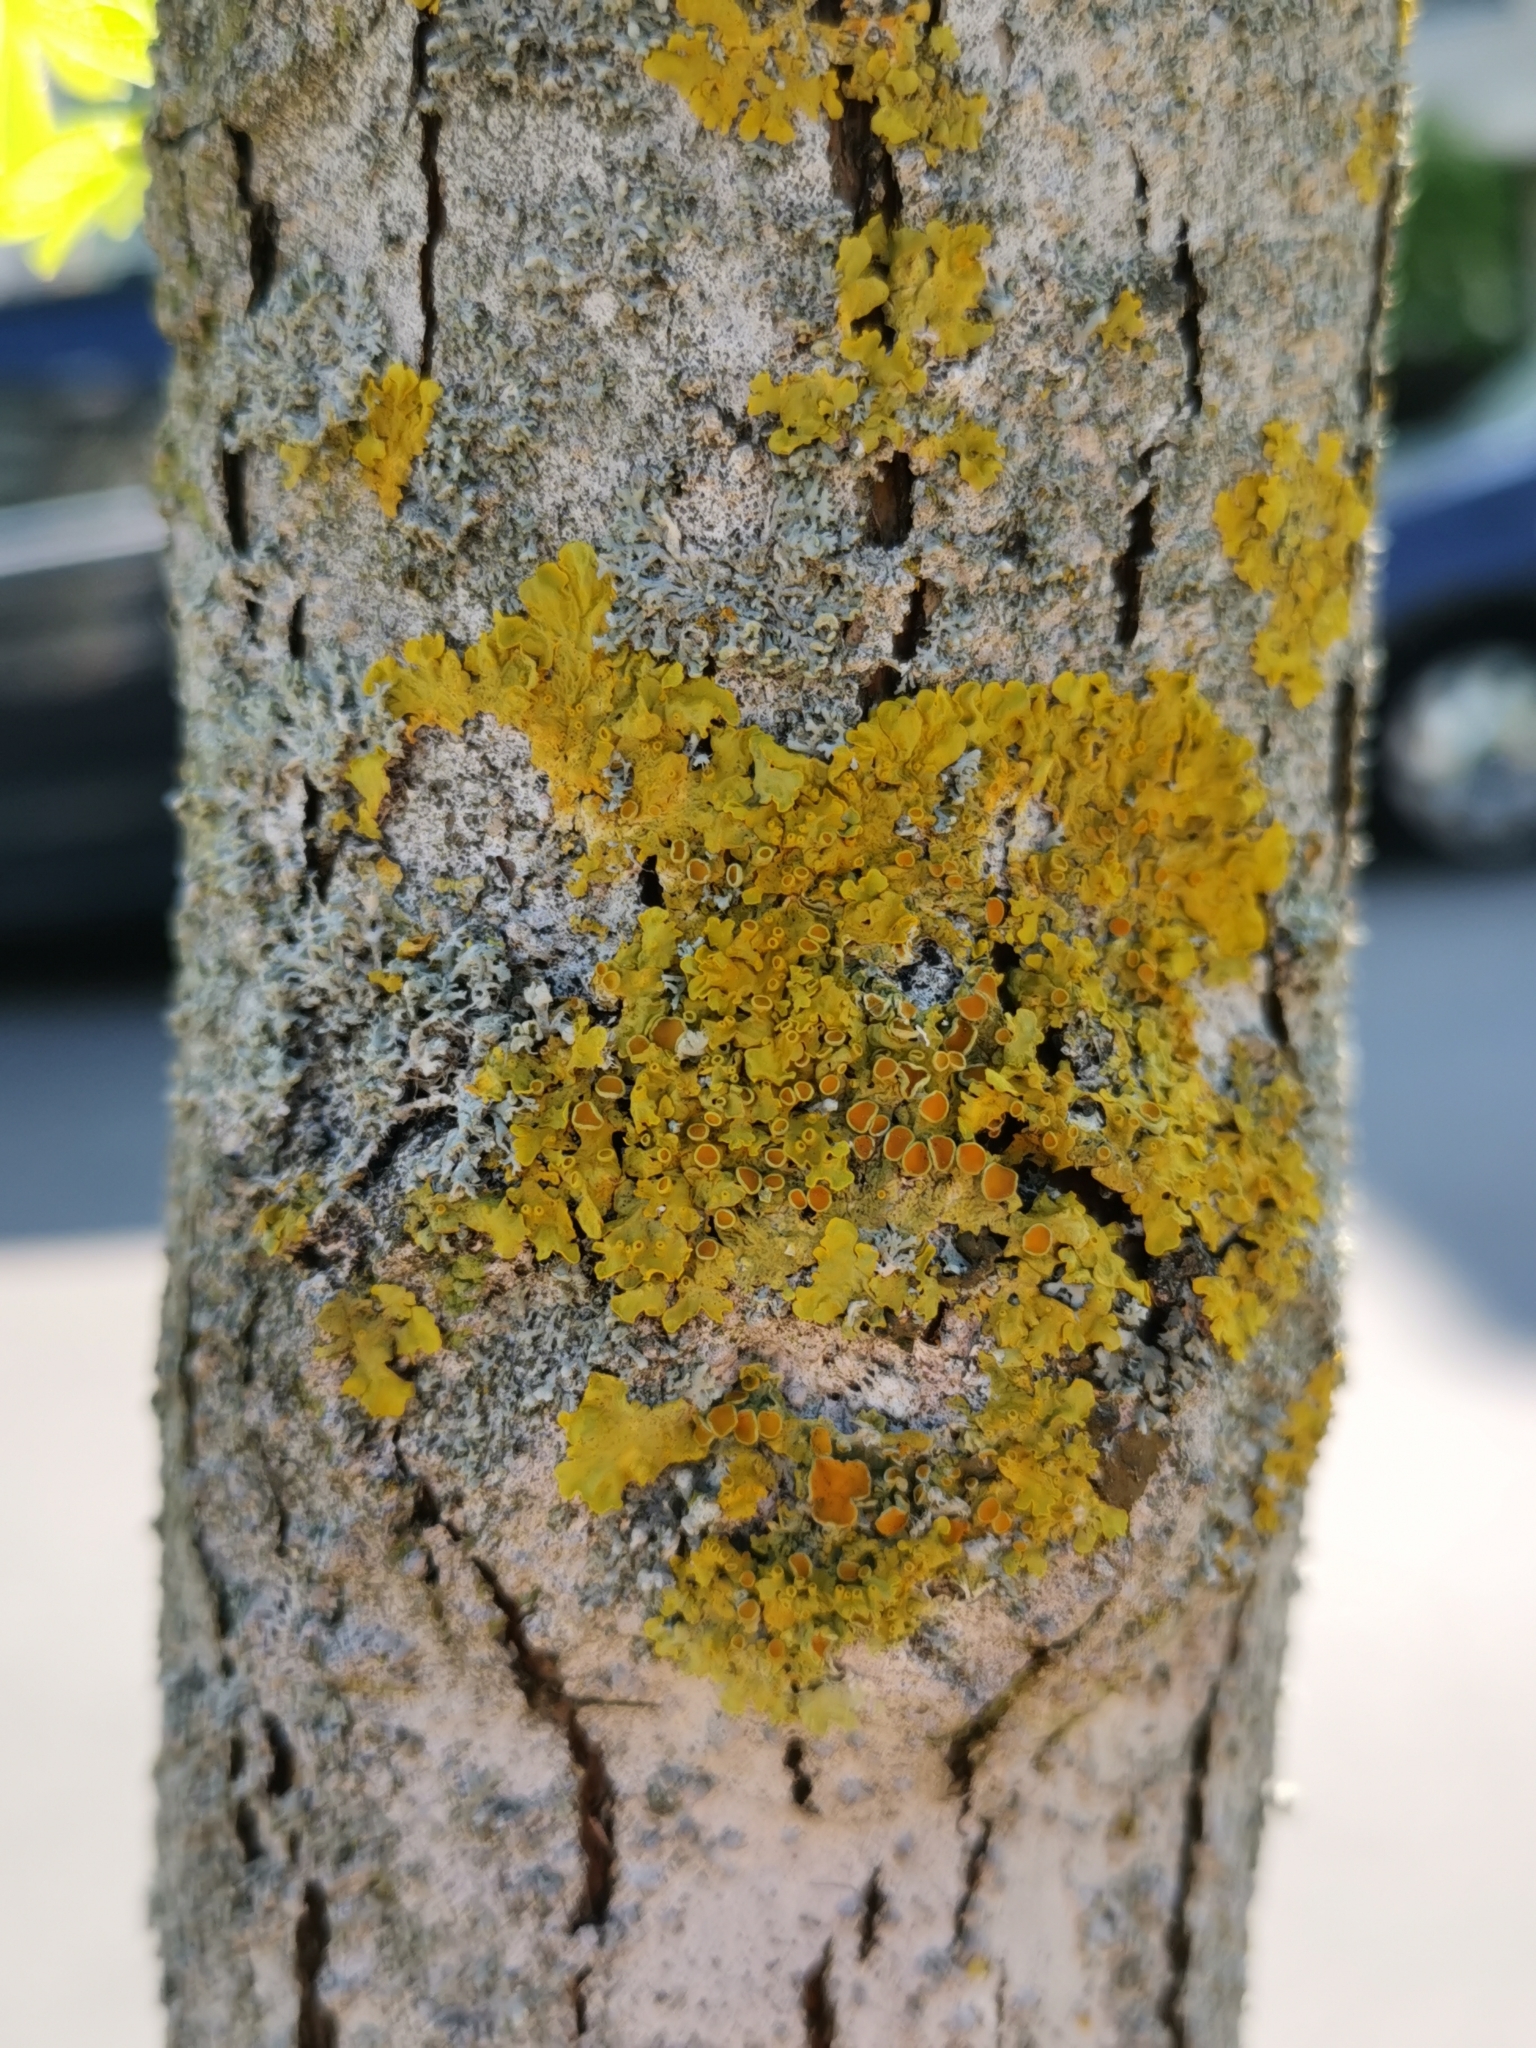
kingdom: Fungi
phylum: Ascomycota
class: Lecanoromycetes
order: Teloschistales
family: Teloschistaceae
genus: Xanthoria
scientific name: Xanthoria parietina
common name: Common orange lichen
